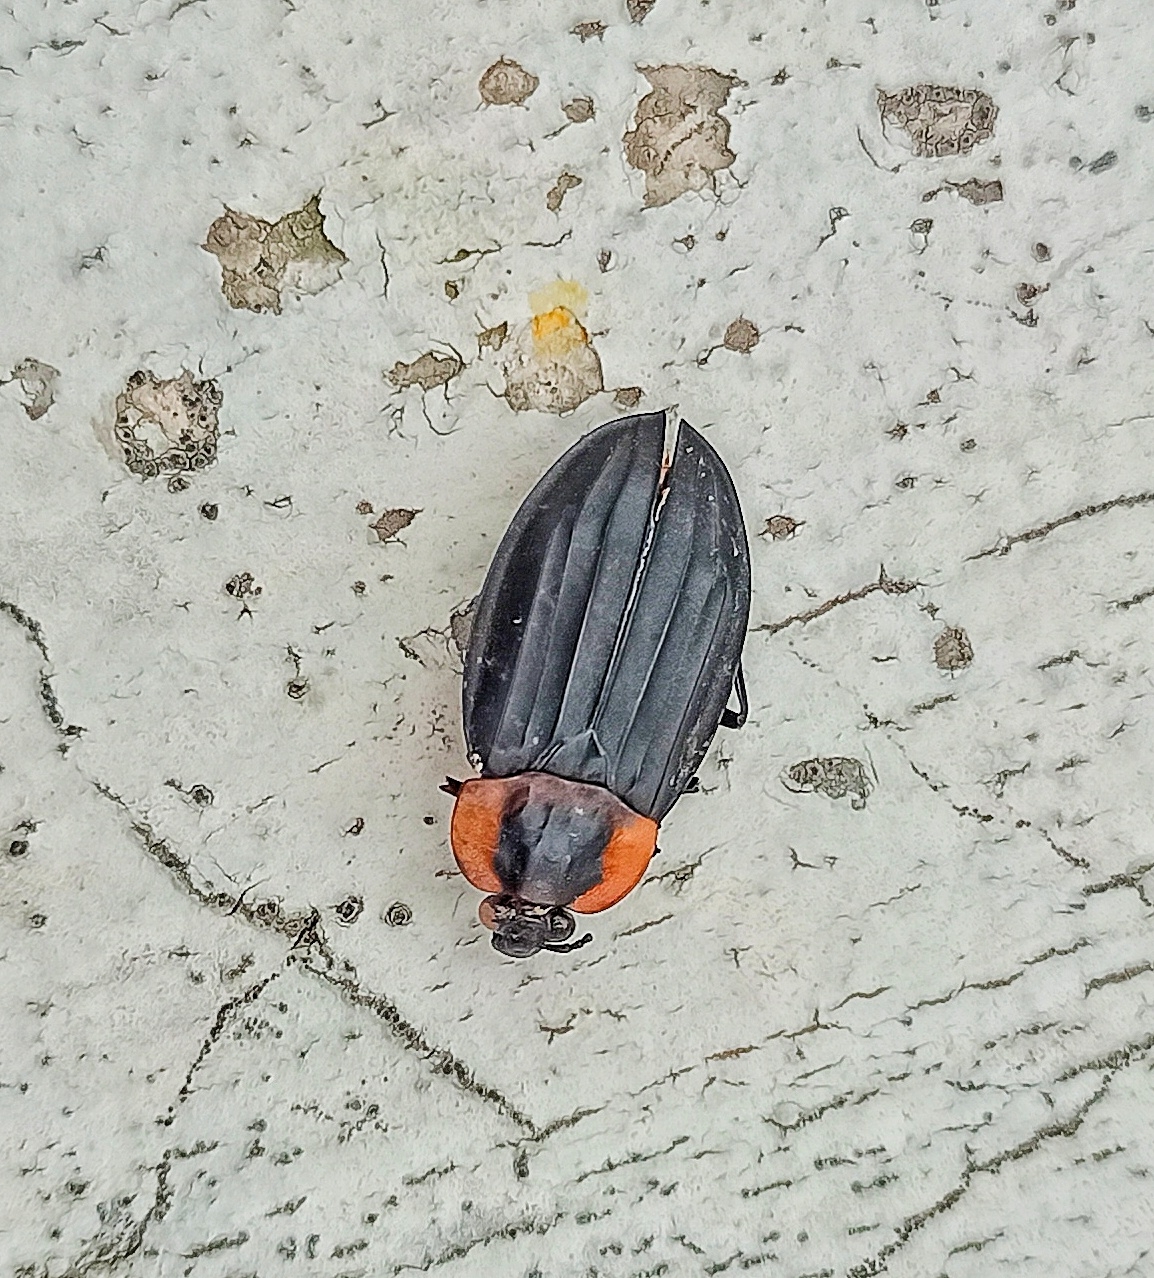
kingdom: Animalia
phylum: Arthropoda
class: Insecta
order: Coleoptera
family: Staphylinidae
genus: Oxelytrum
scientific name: Oxelytrum discicolle
